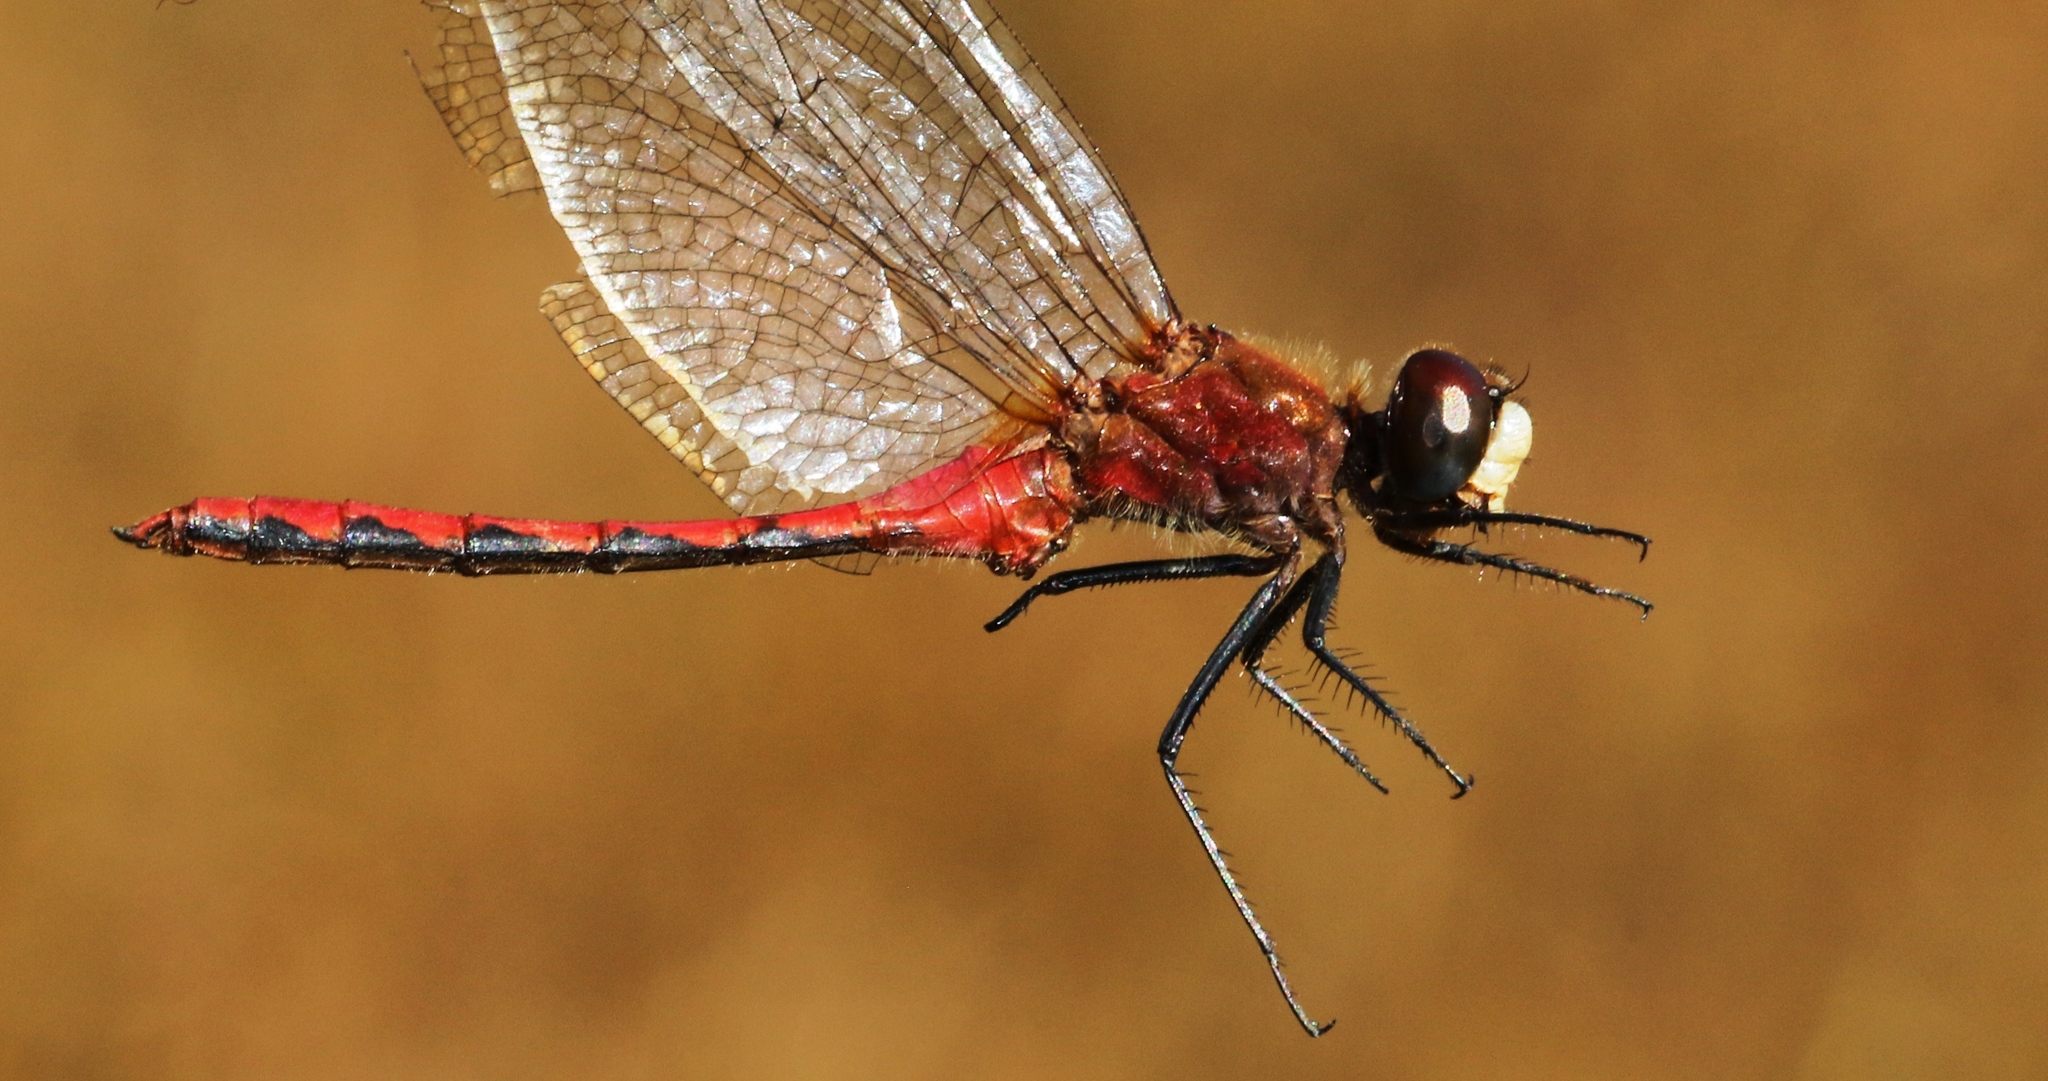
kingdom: Animalia
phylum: Arthropoda
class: Insecta
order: Odonata
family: Libellulidae
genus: Sympetrum
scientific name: Sympetrum obtrusum
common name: White-faced meadowhawk
